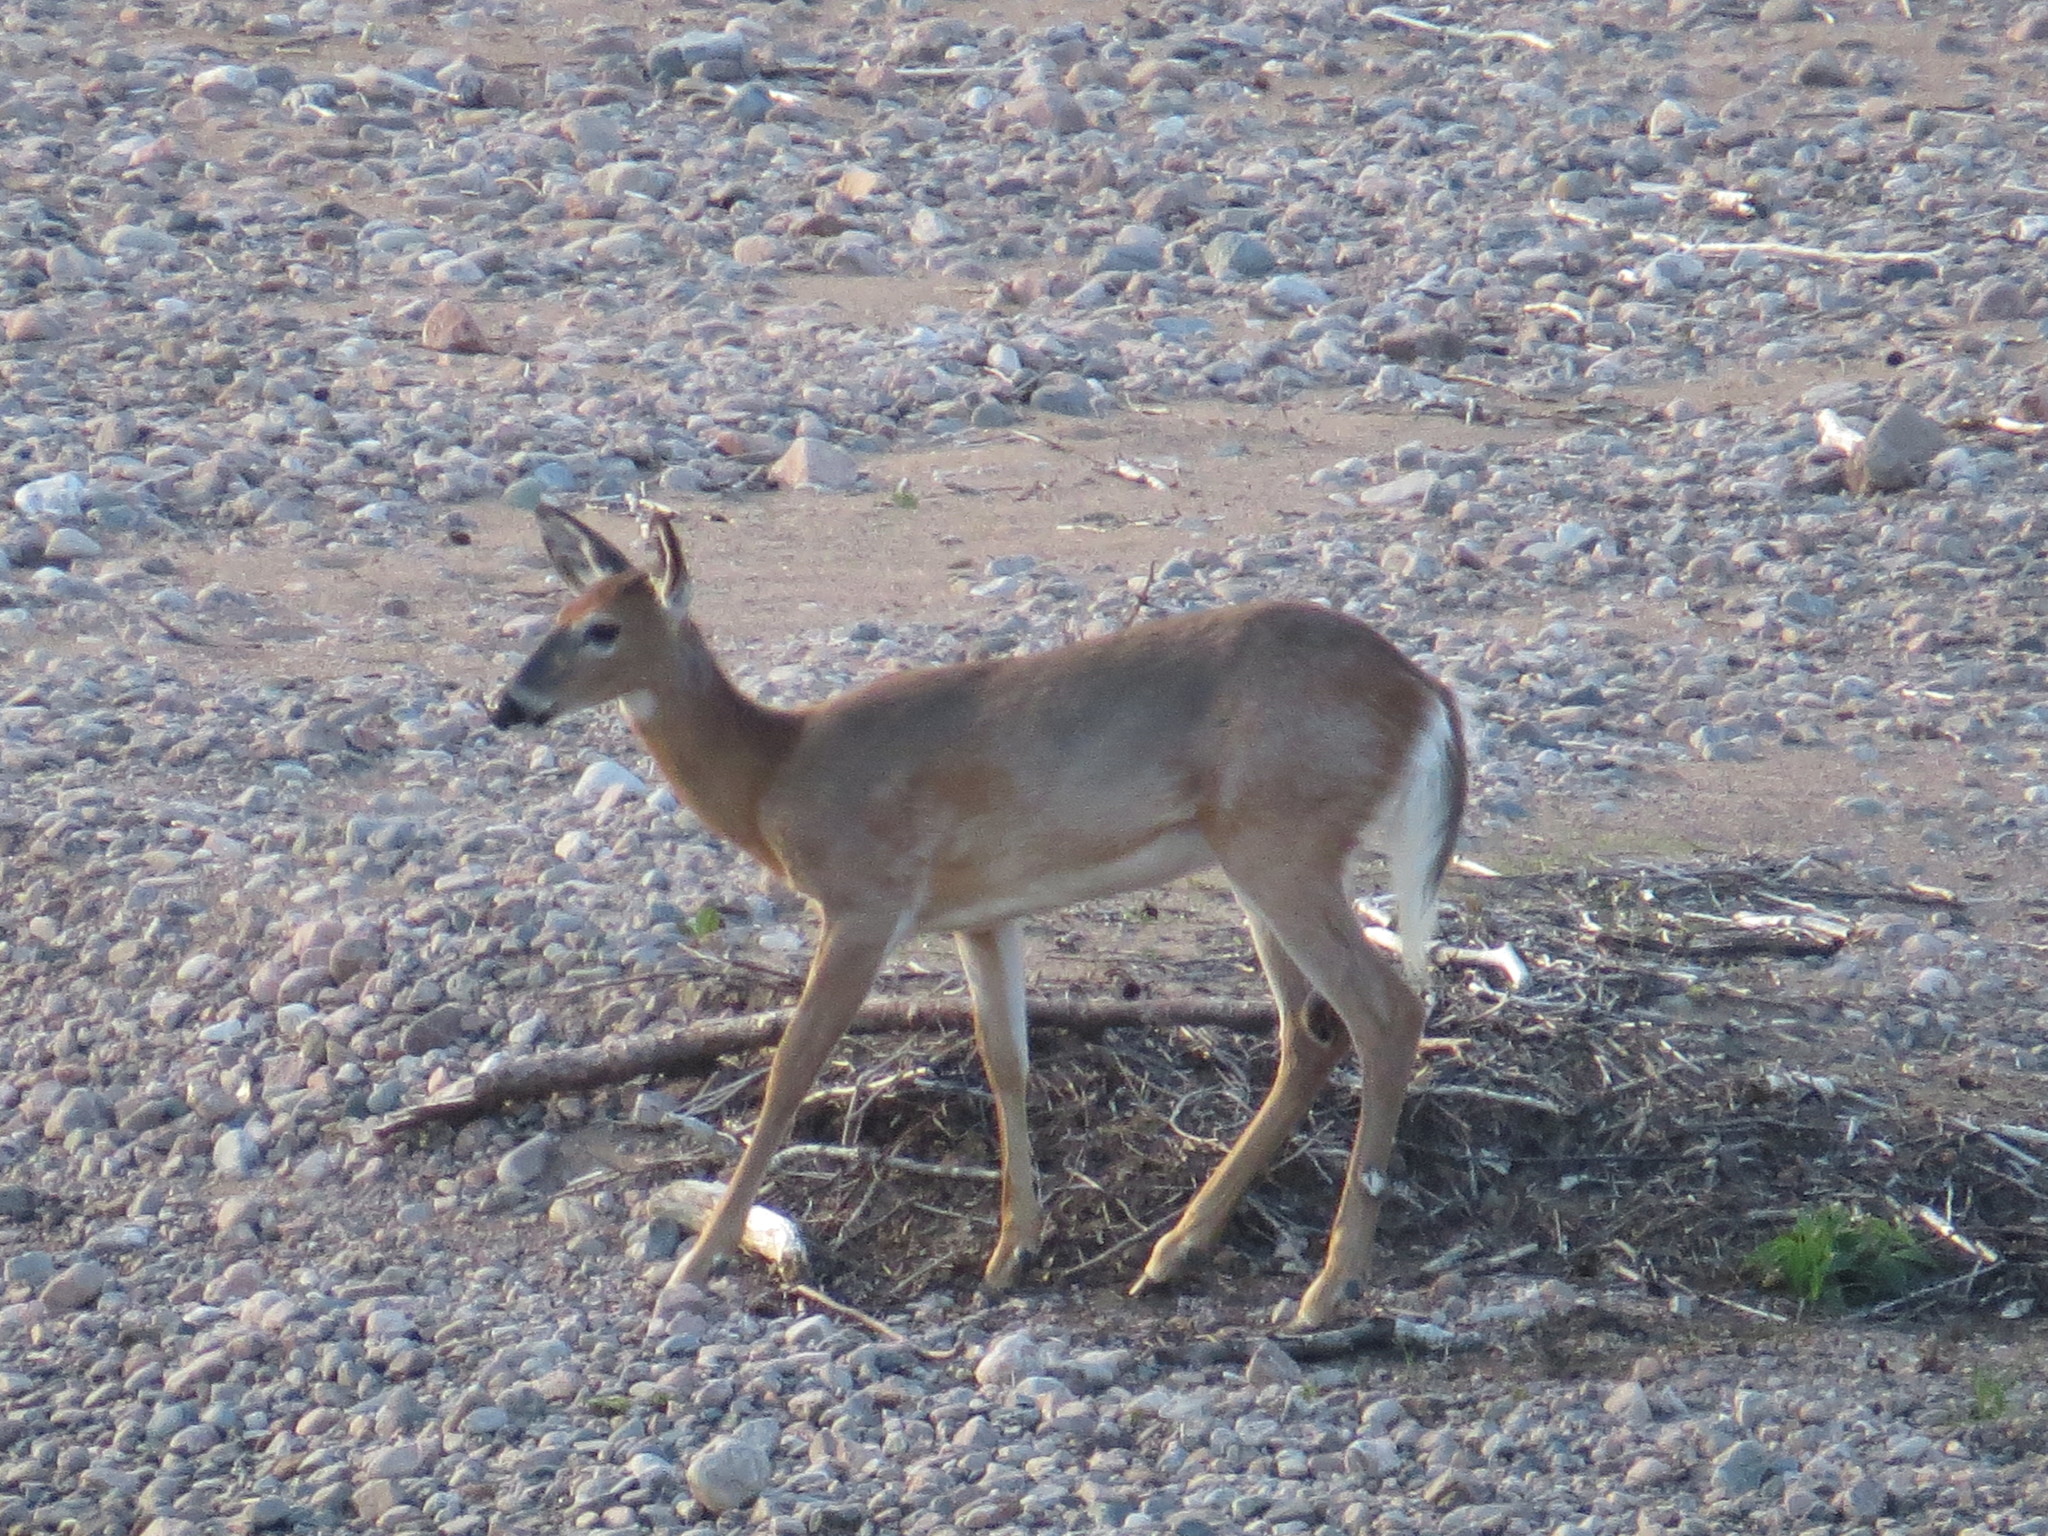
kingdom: Animalia
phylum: Chordata
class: Mammalia
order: Artiodactyla
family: Cervidae
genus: Odocoileus
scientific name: Odocoileus virginianus
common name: White-tailed deer
